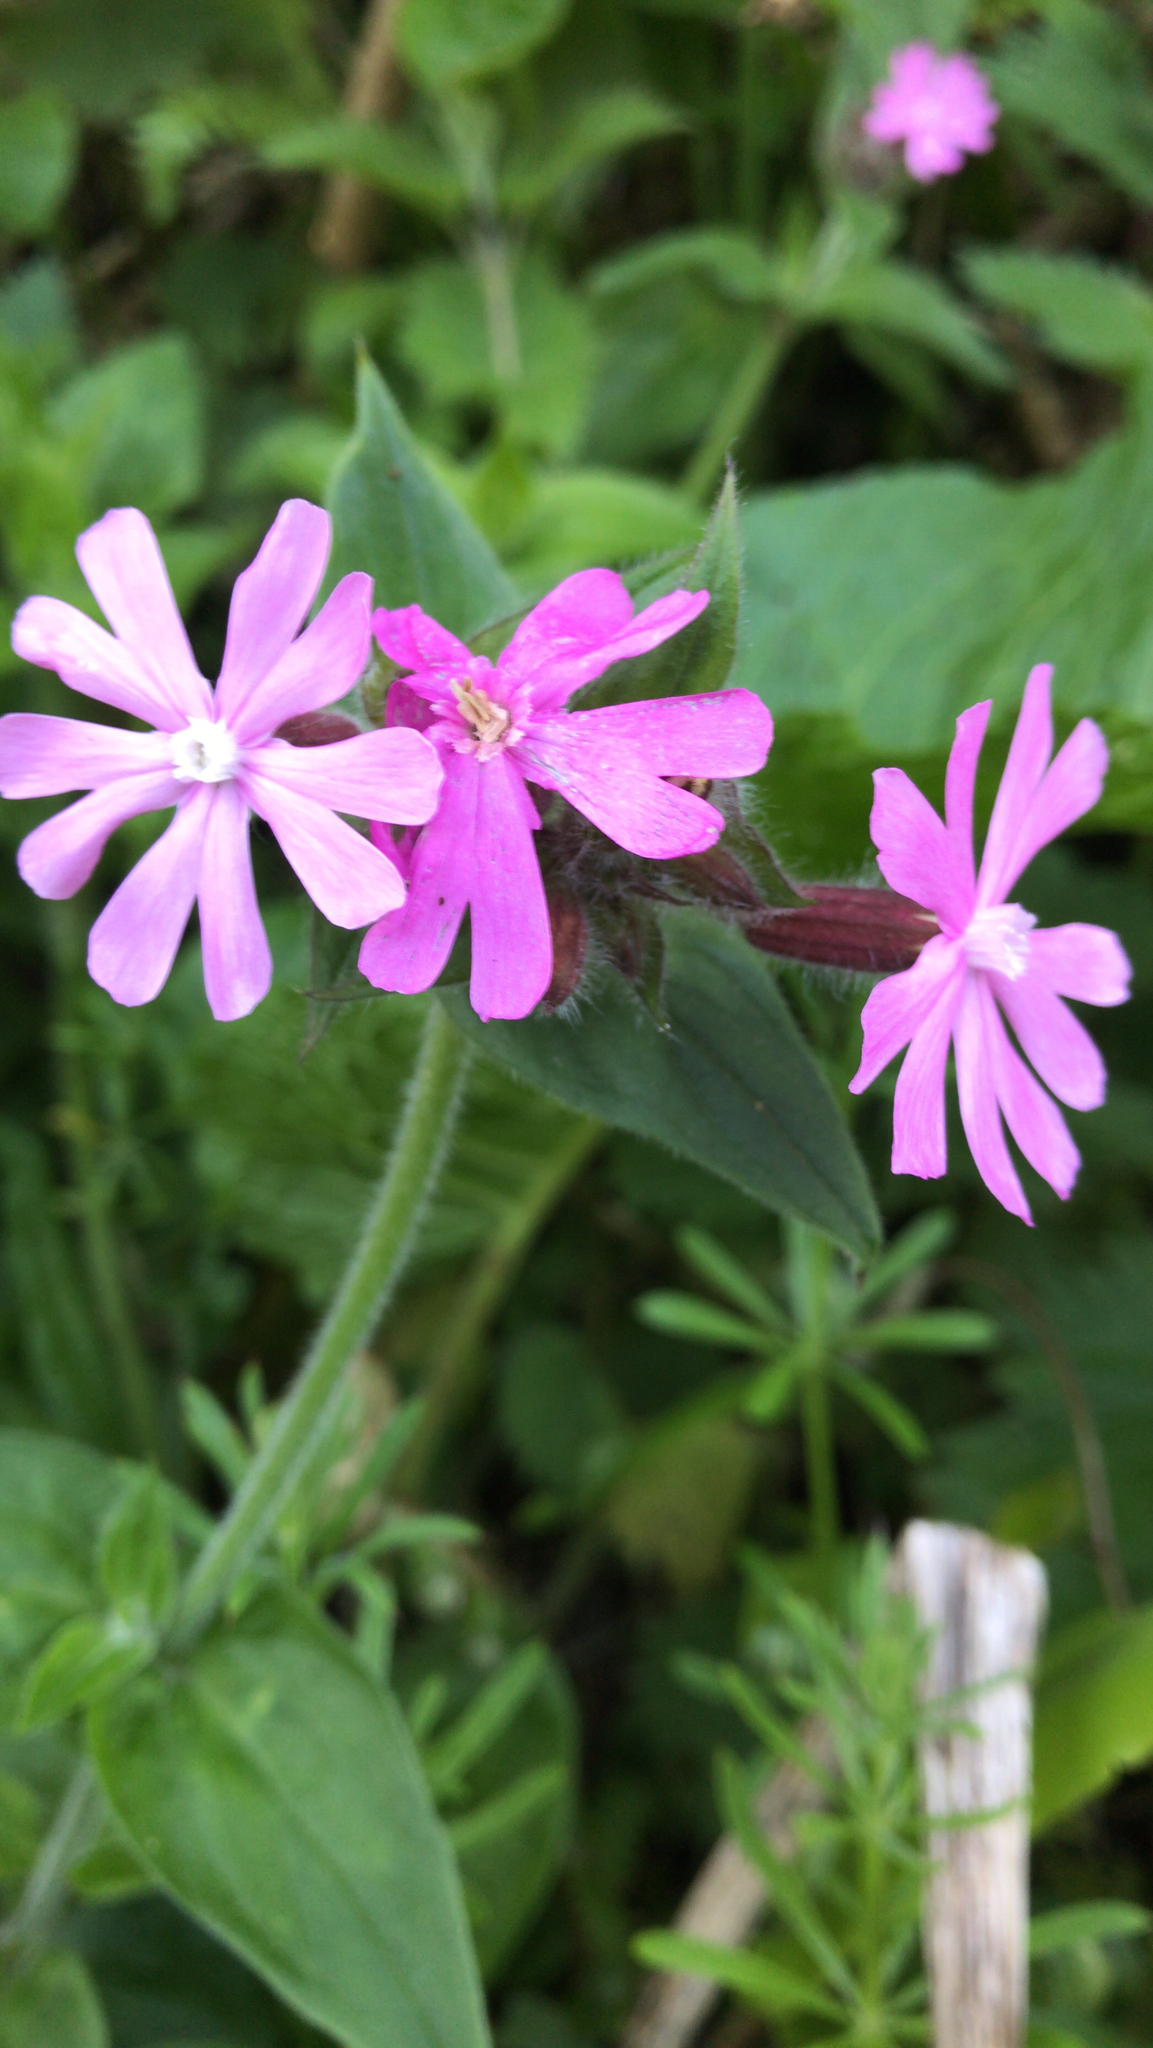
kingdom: Plantae
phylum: Tracheophyta
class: Magnoliopsida
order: Caryophyllales
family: Caryophyllaceae
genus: Silene
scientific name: Silene dioica
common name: Red campion
